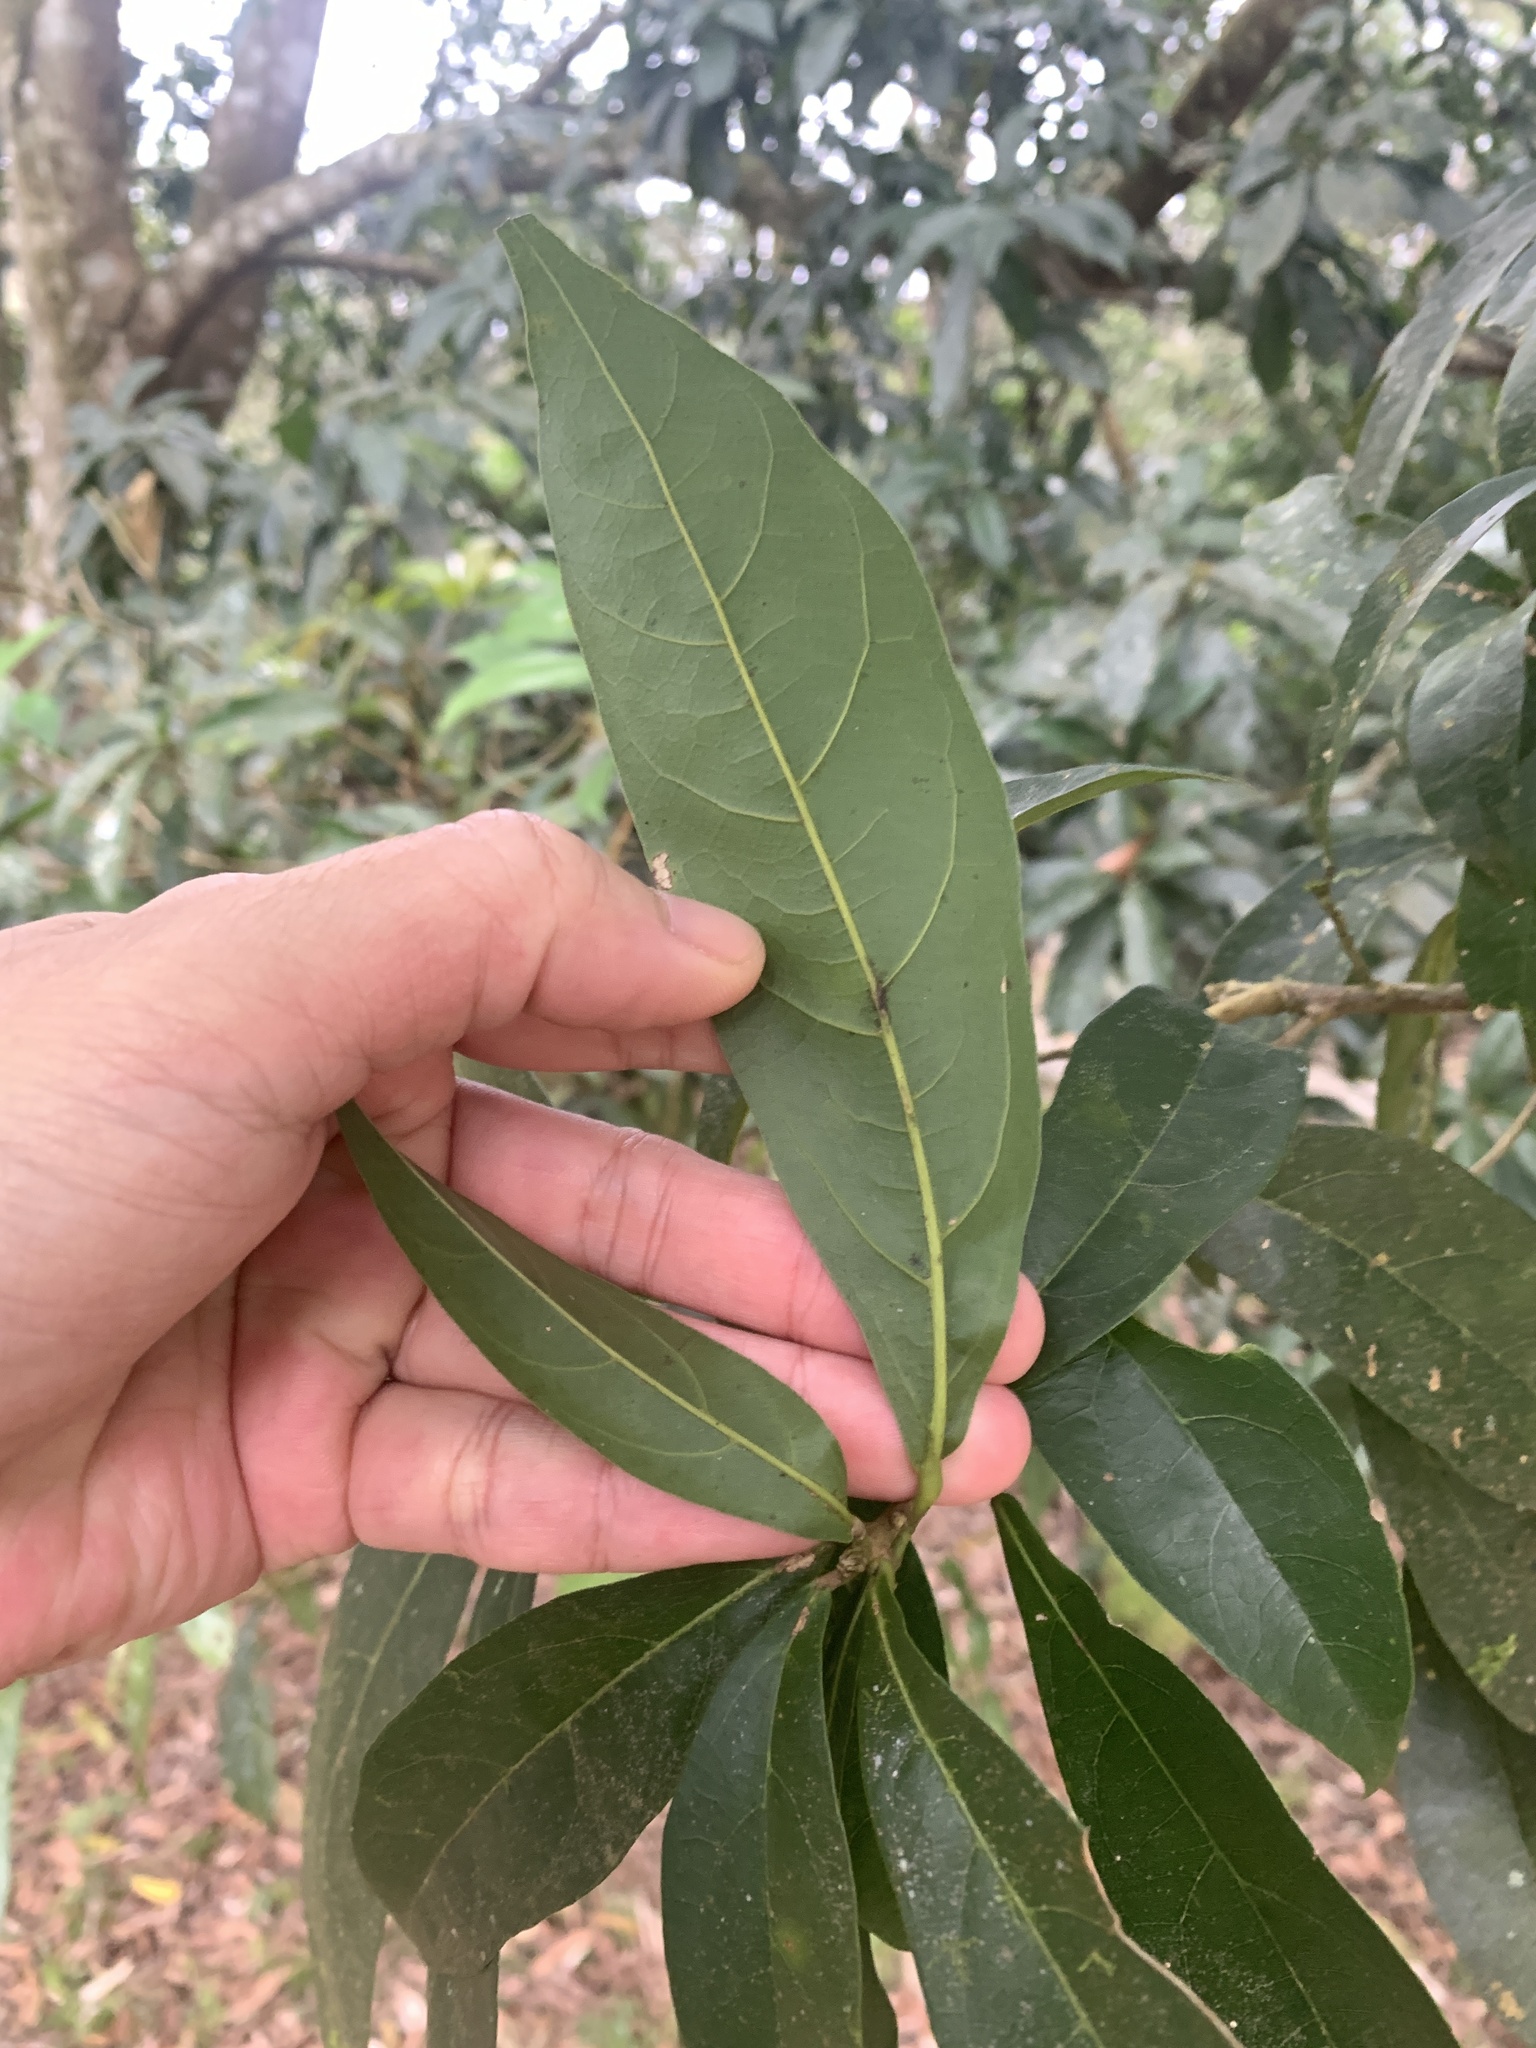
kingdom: Plantae
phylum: Tracheophyta
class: Magnoliopsida
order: Oxalidales
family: Elaeocarpaceae
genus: Sloanea
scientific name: Sloanea dasycarpa
